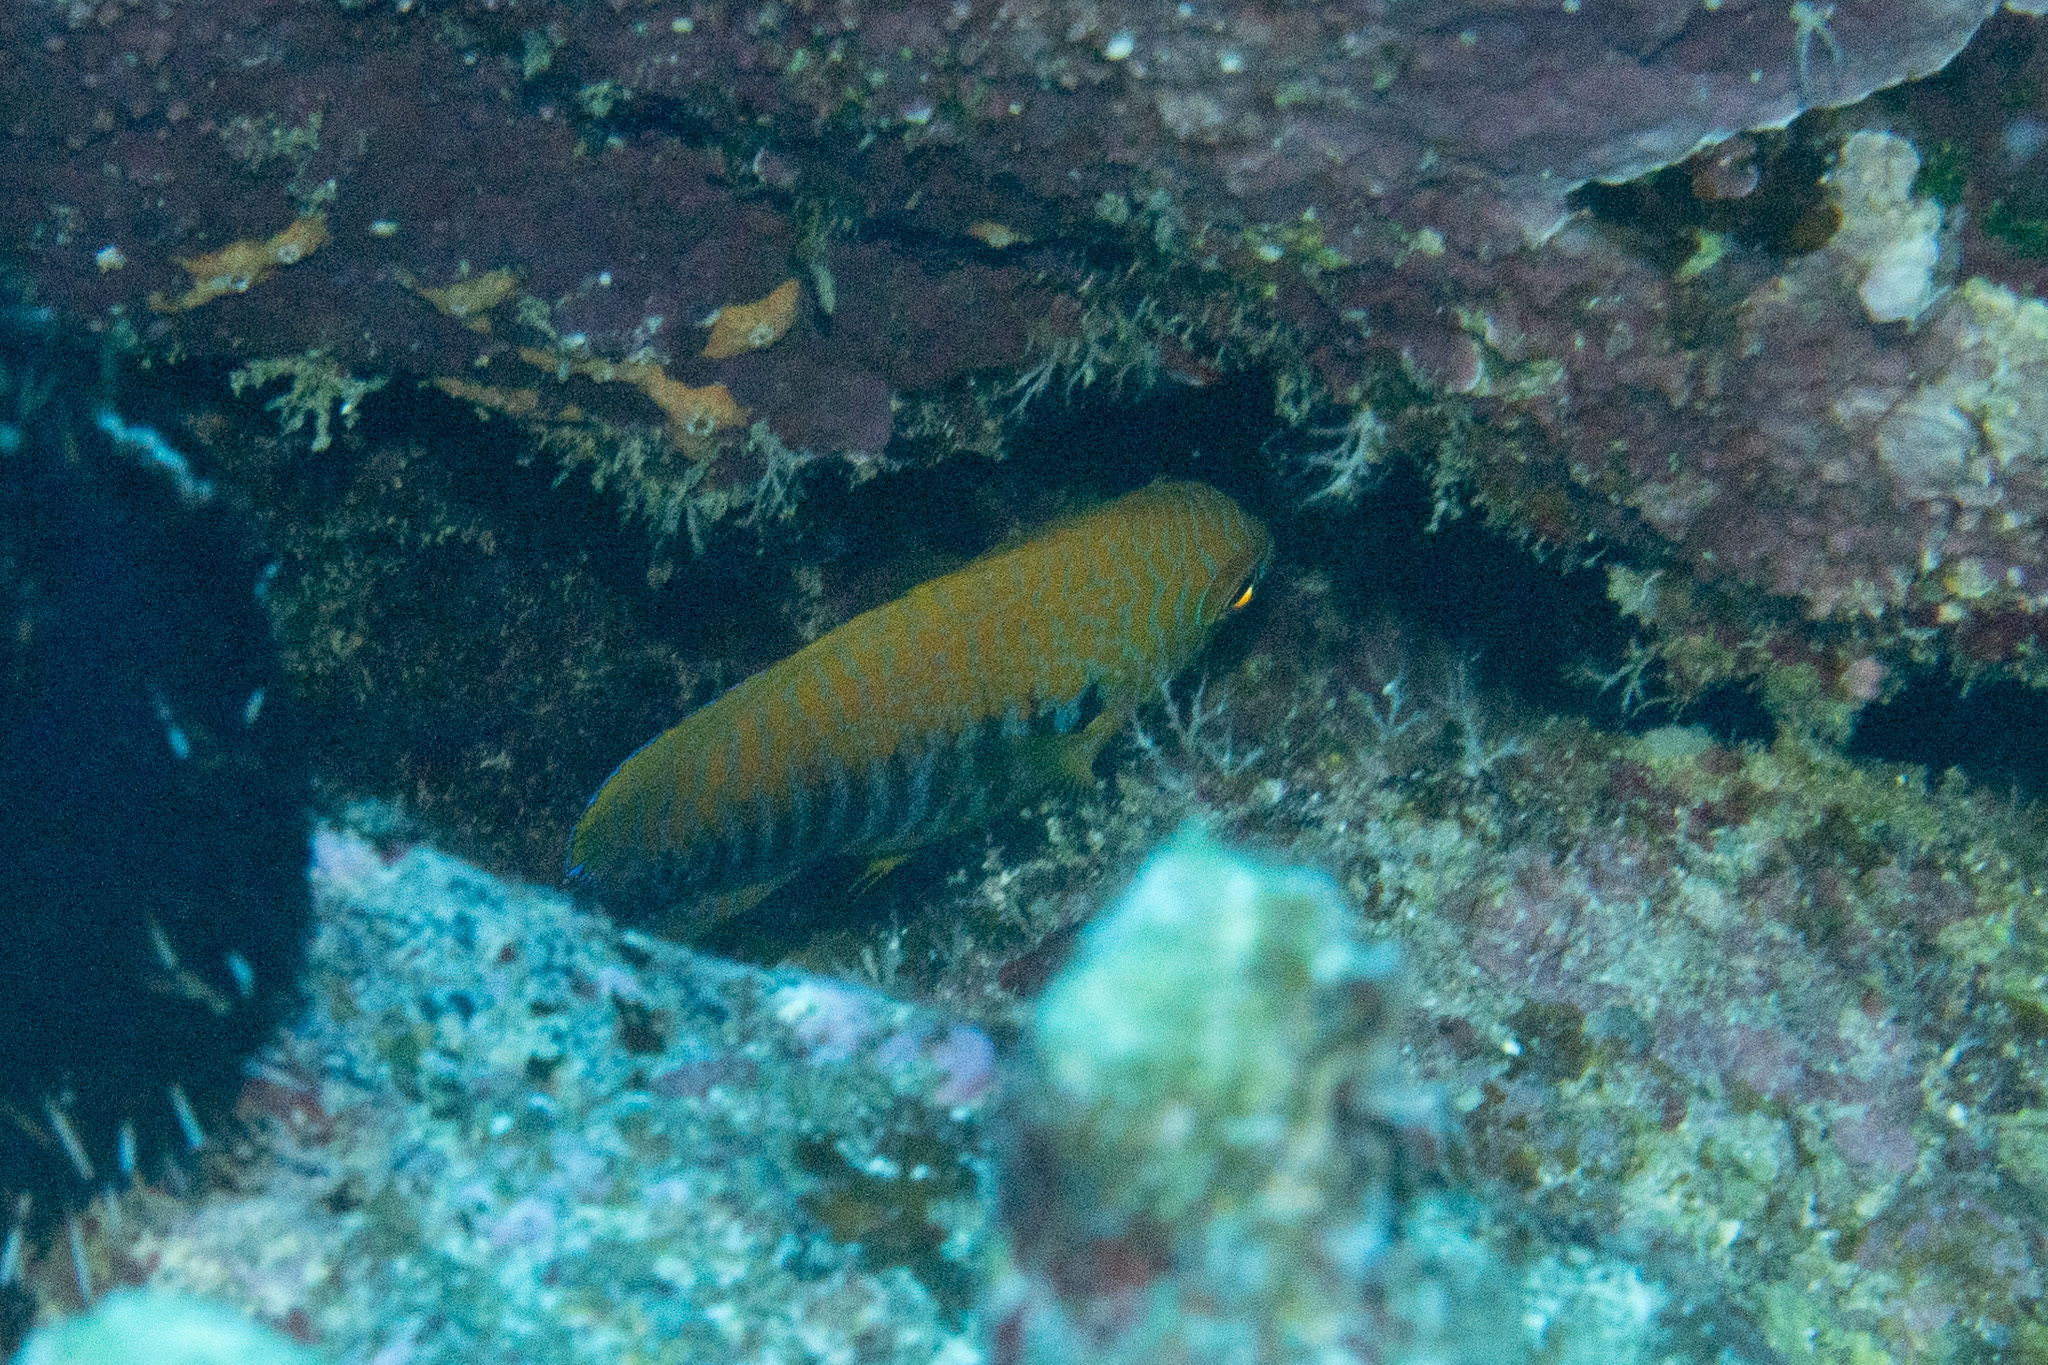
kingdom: Animalia
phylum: Chordata
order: Perciformes
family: Pomacanthidae
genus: Centropyge
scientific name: Centropyge potteri
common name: Potter's angelfish
